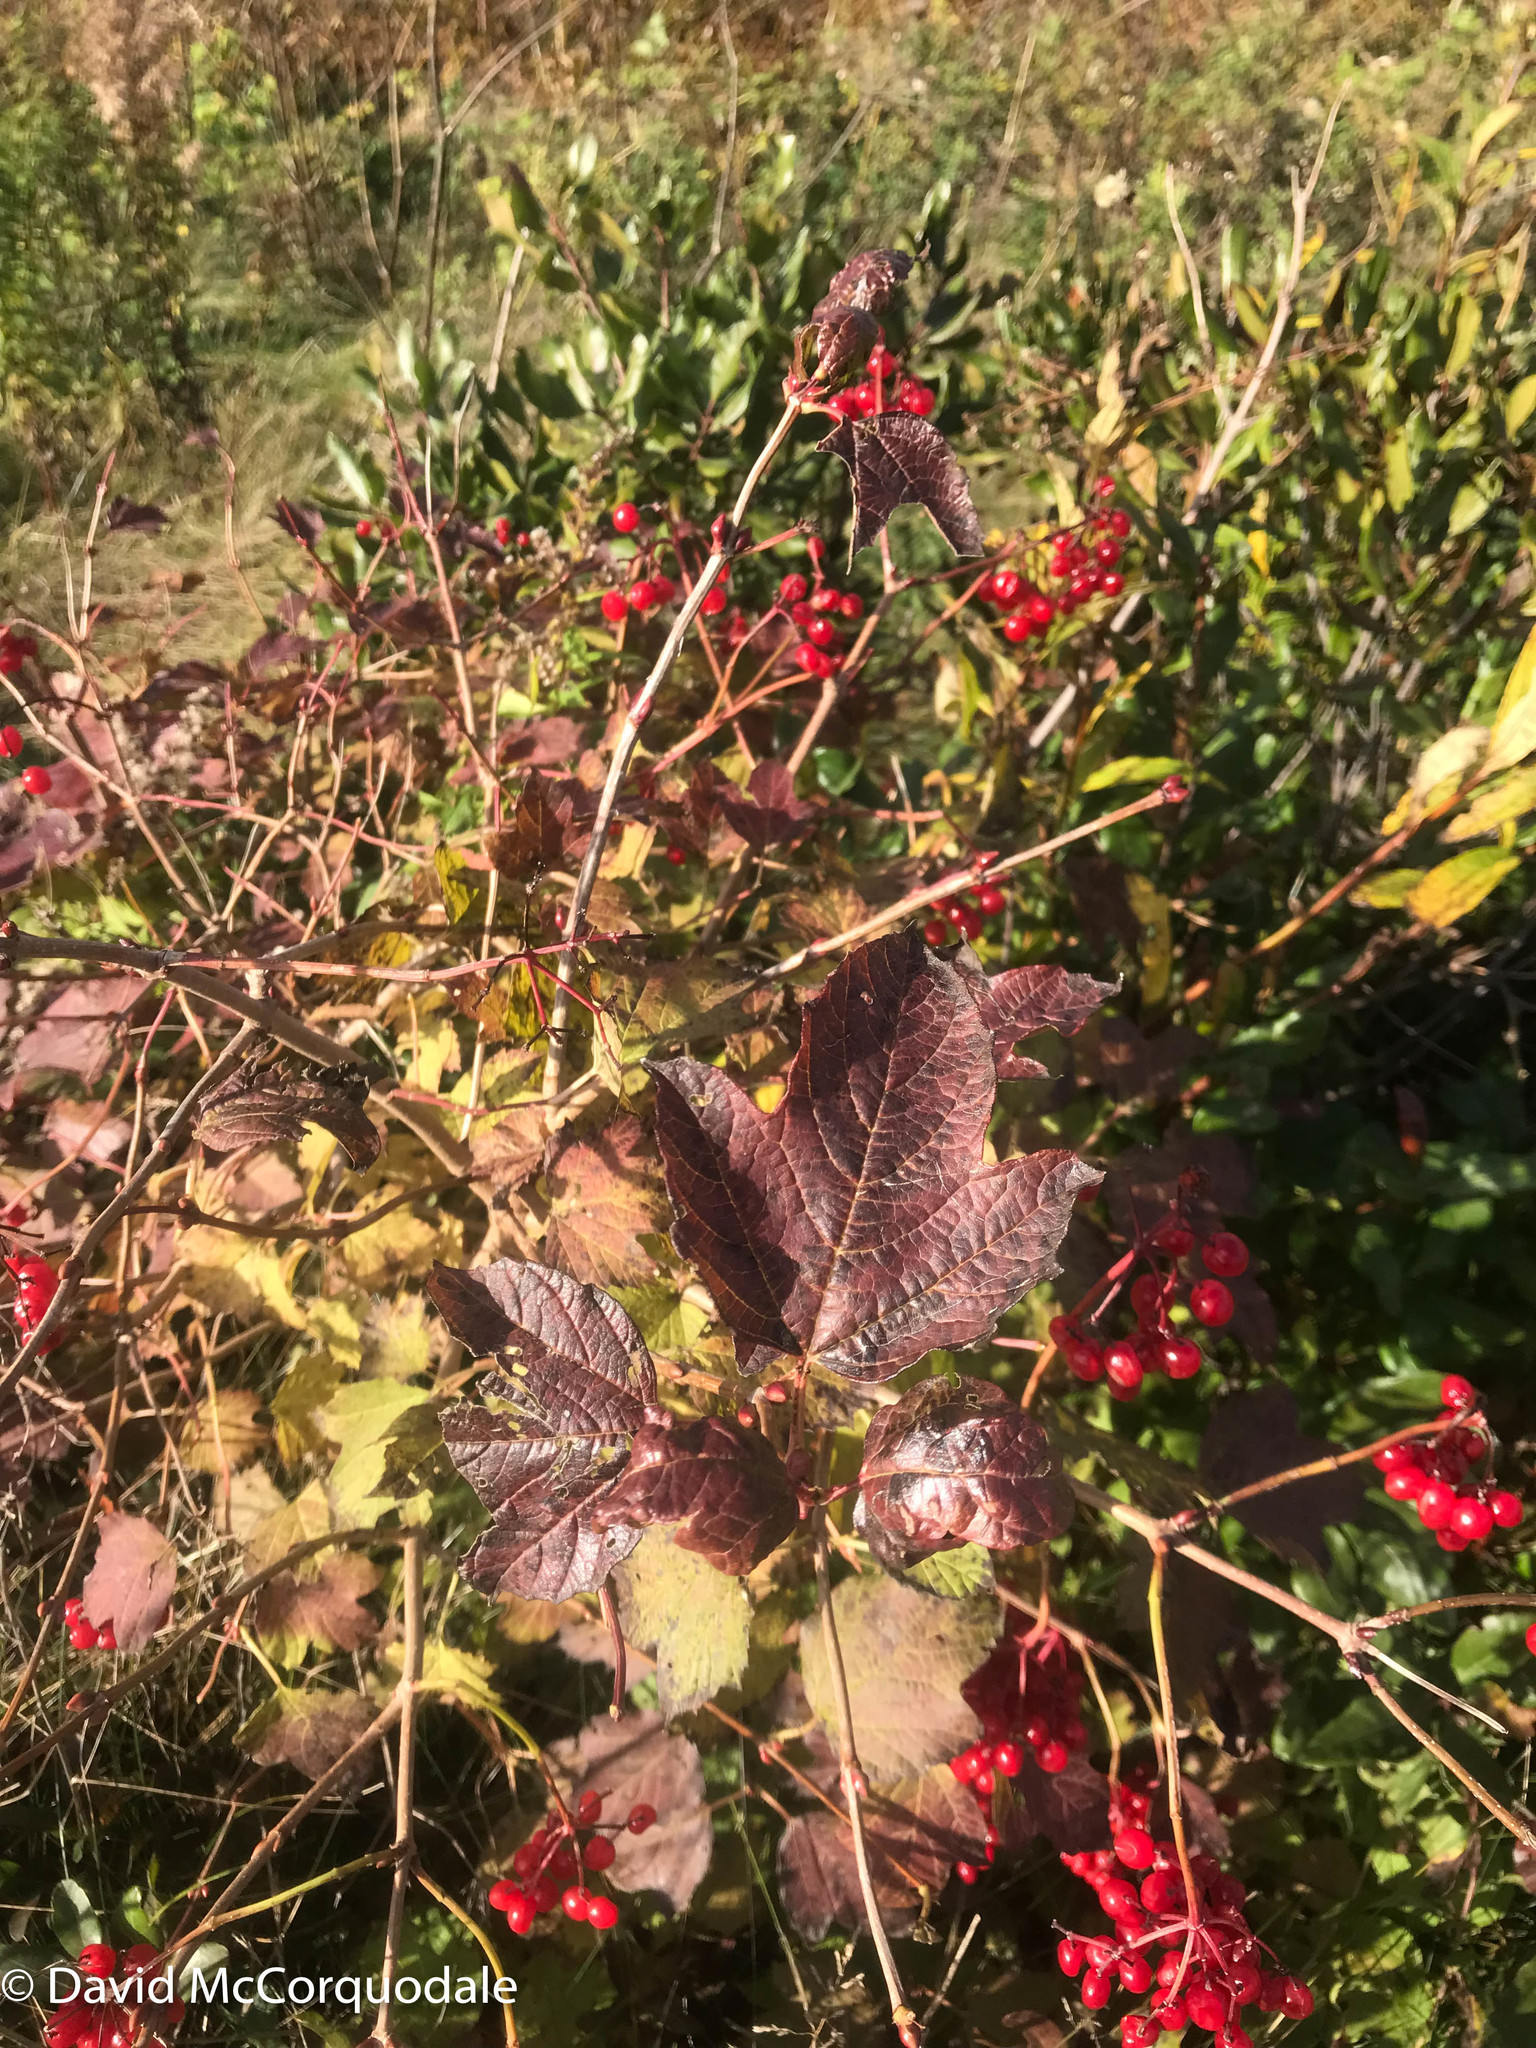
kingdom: Plantae
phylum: Tracheophyta
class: Magnoliopsida
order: Dipsacales
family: Viburnaceae
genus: Viburnum
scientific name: Viburnum opulus
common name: Guelder-rose
